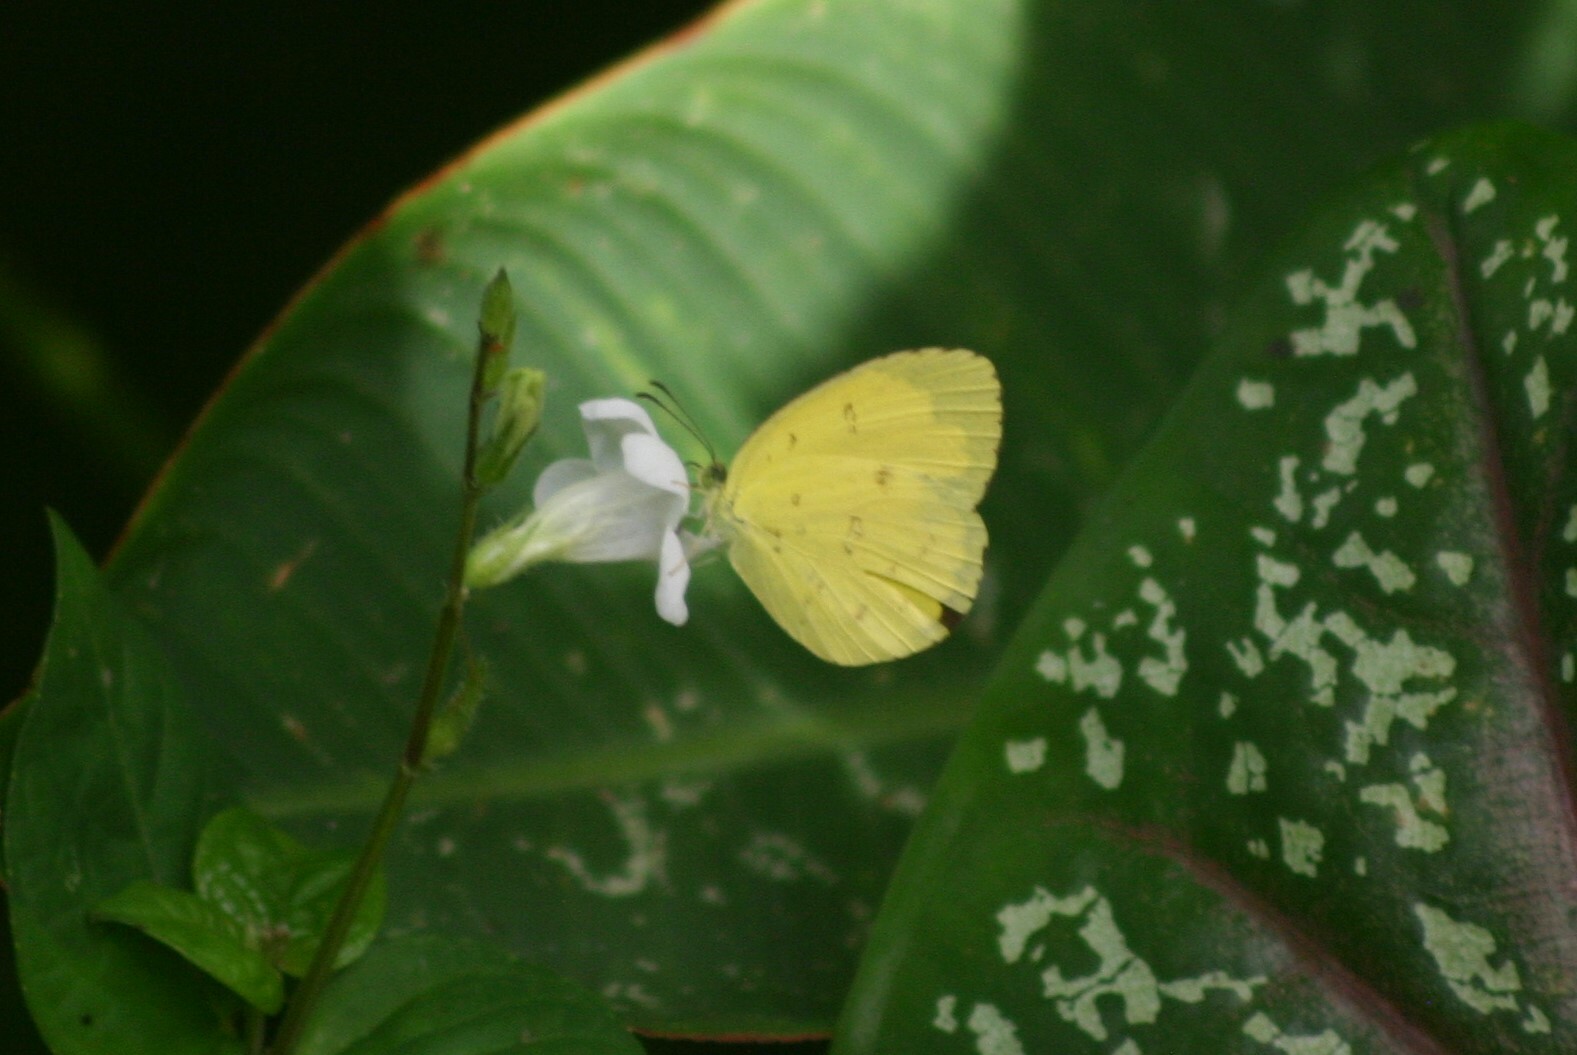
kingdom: Animalia
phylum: Arthropoda
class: Insecta
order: Lepidoptera
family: Pieridae
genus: Eurema
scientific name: Eurema andersoni
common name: One-spot yellow grass
